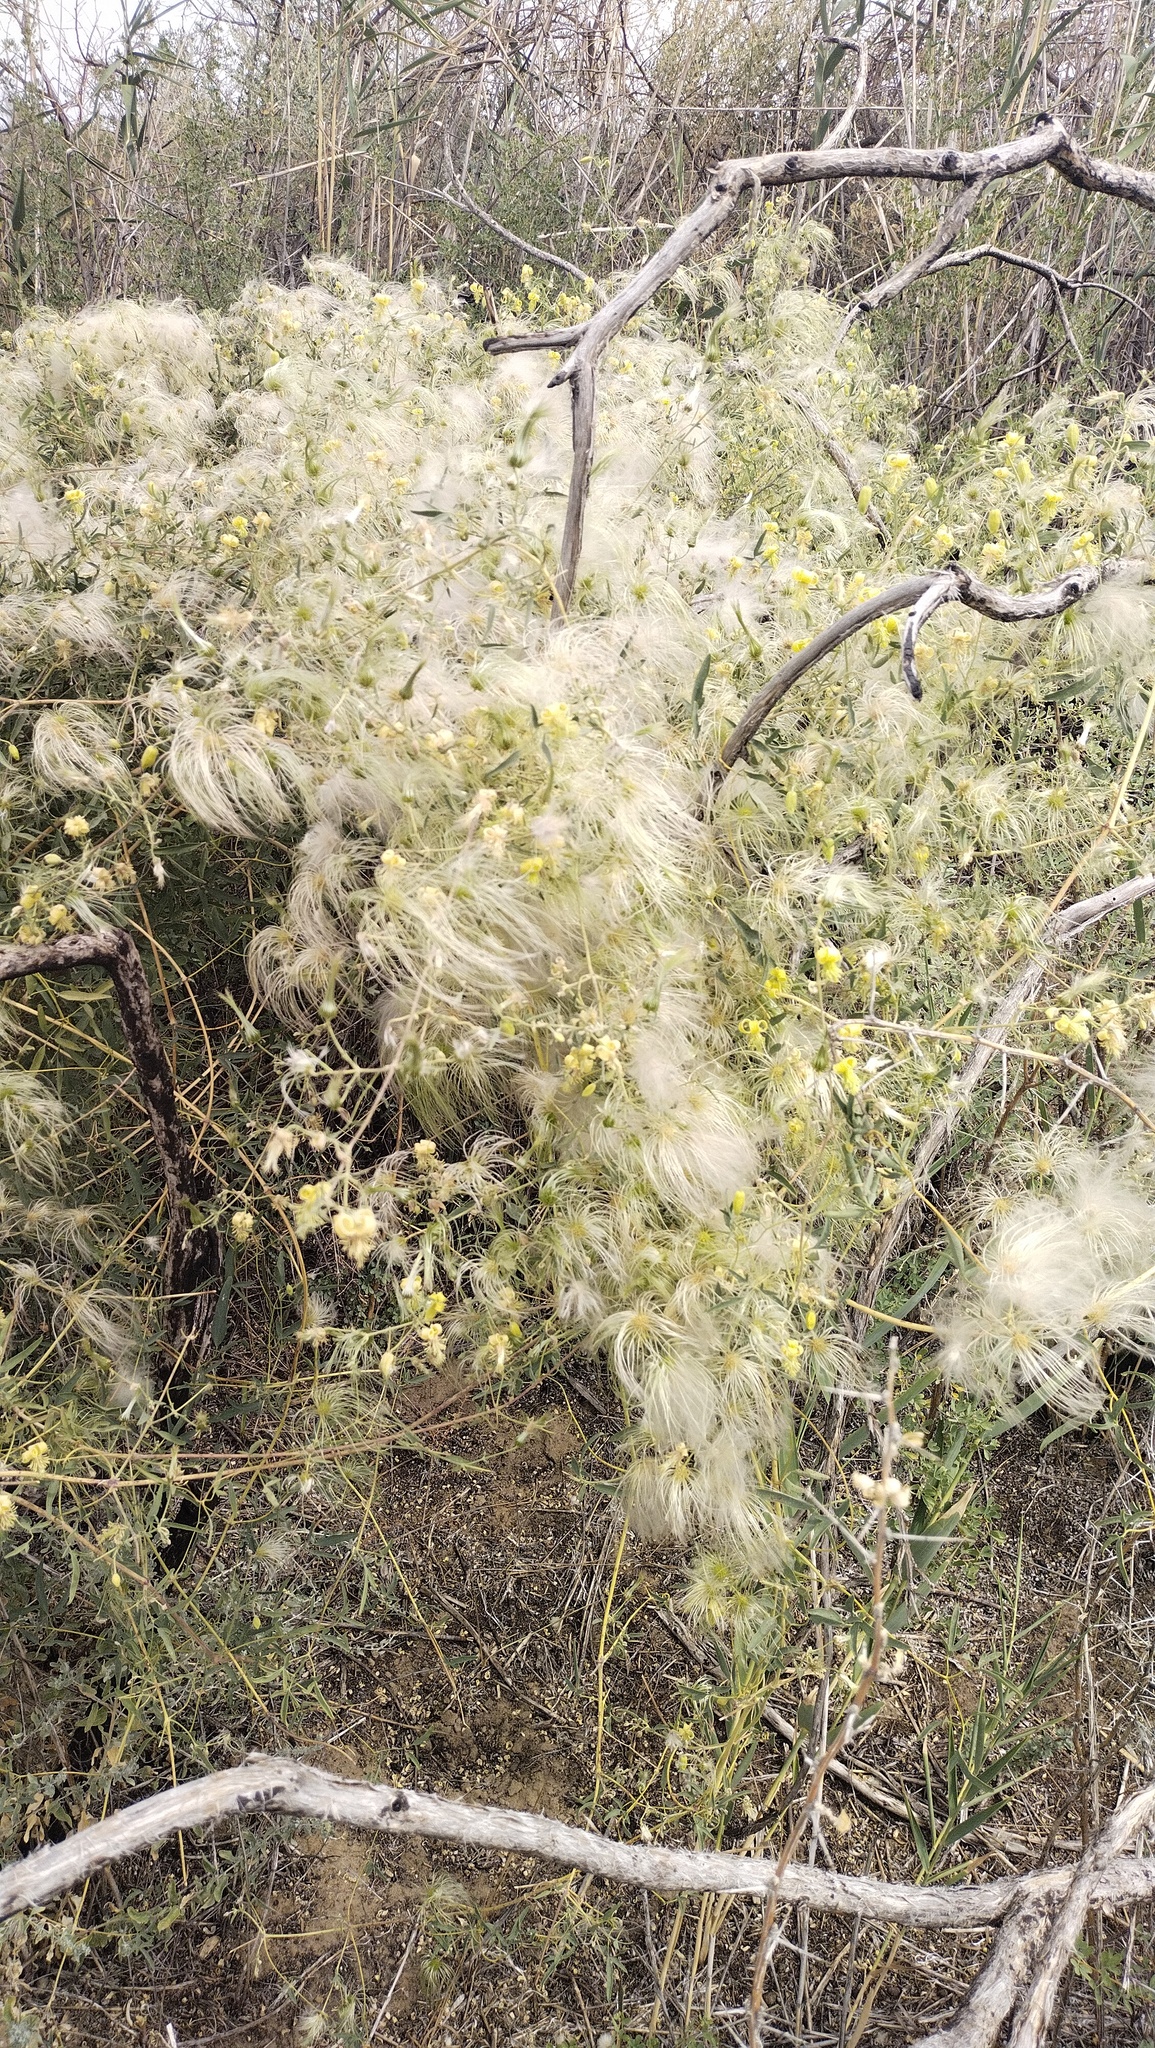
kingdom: Plantae
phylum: Tracheophyta
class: Magnoliopsida
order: Ranunculales
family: Ranunculaceae
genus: Clematis
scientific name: Clematis orientalis
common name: Oriental virgin's-bower
